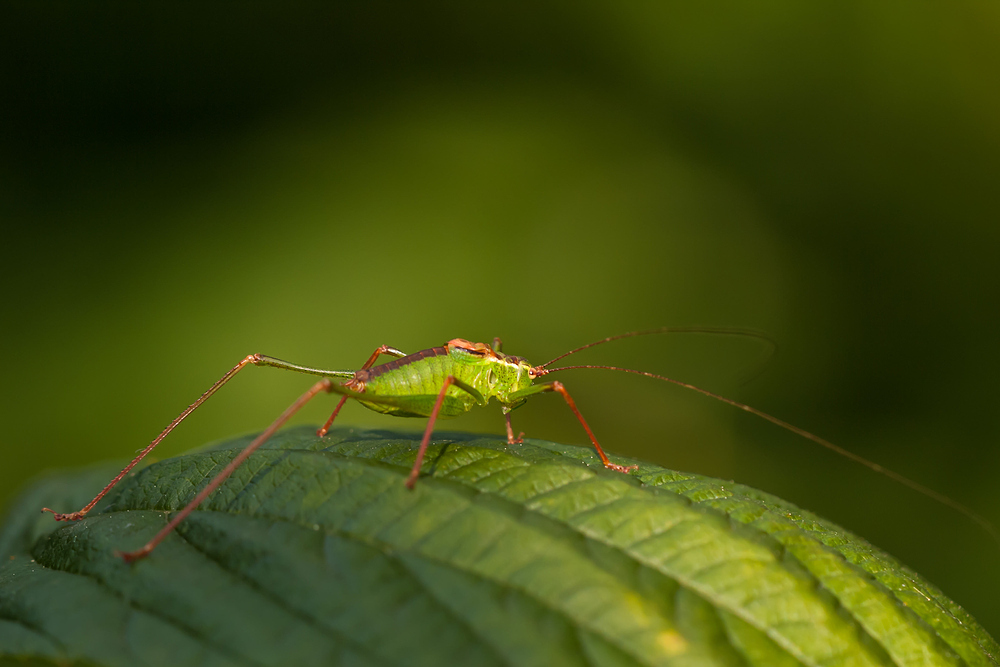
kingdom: Animalia
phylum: Arthropoda
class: Insecta
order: Orthoptera
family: Tettigoniidae
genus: Leptophyes
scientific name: Leptophyes punctatissima
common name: Speckled bush-cricket
